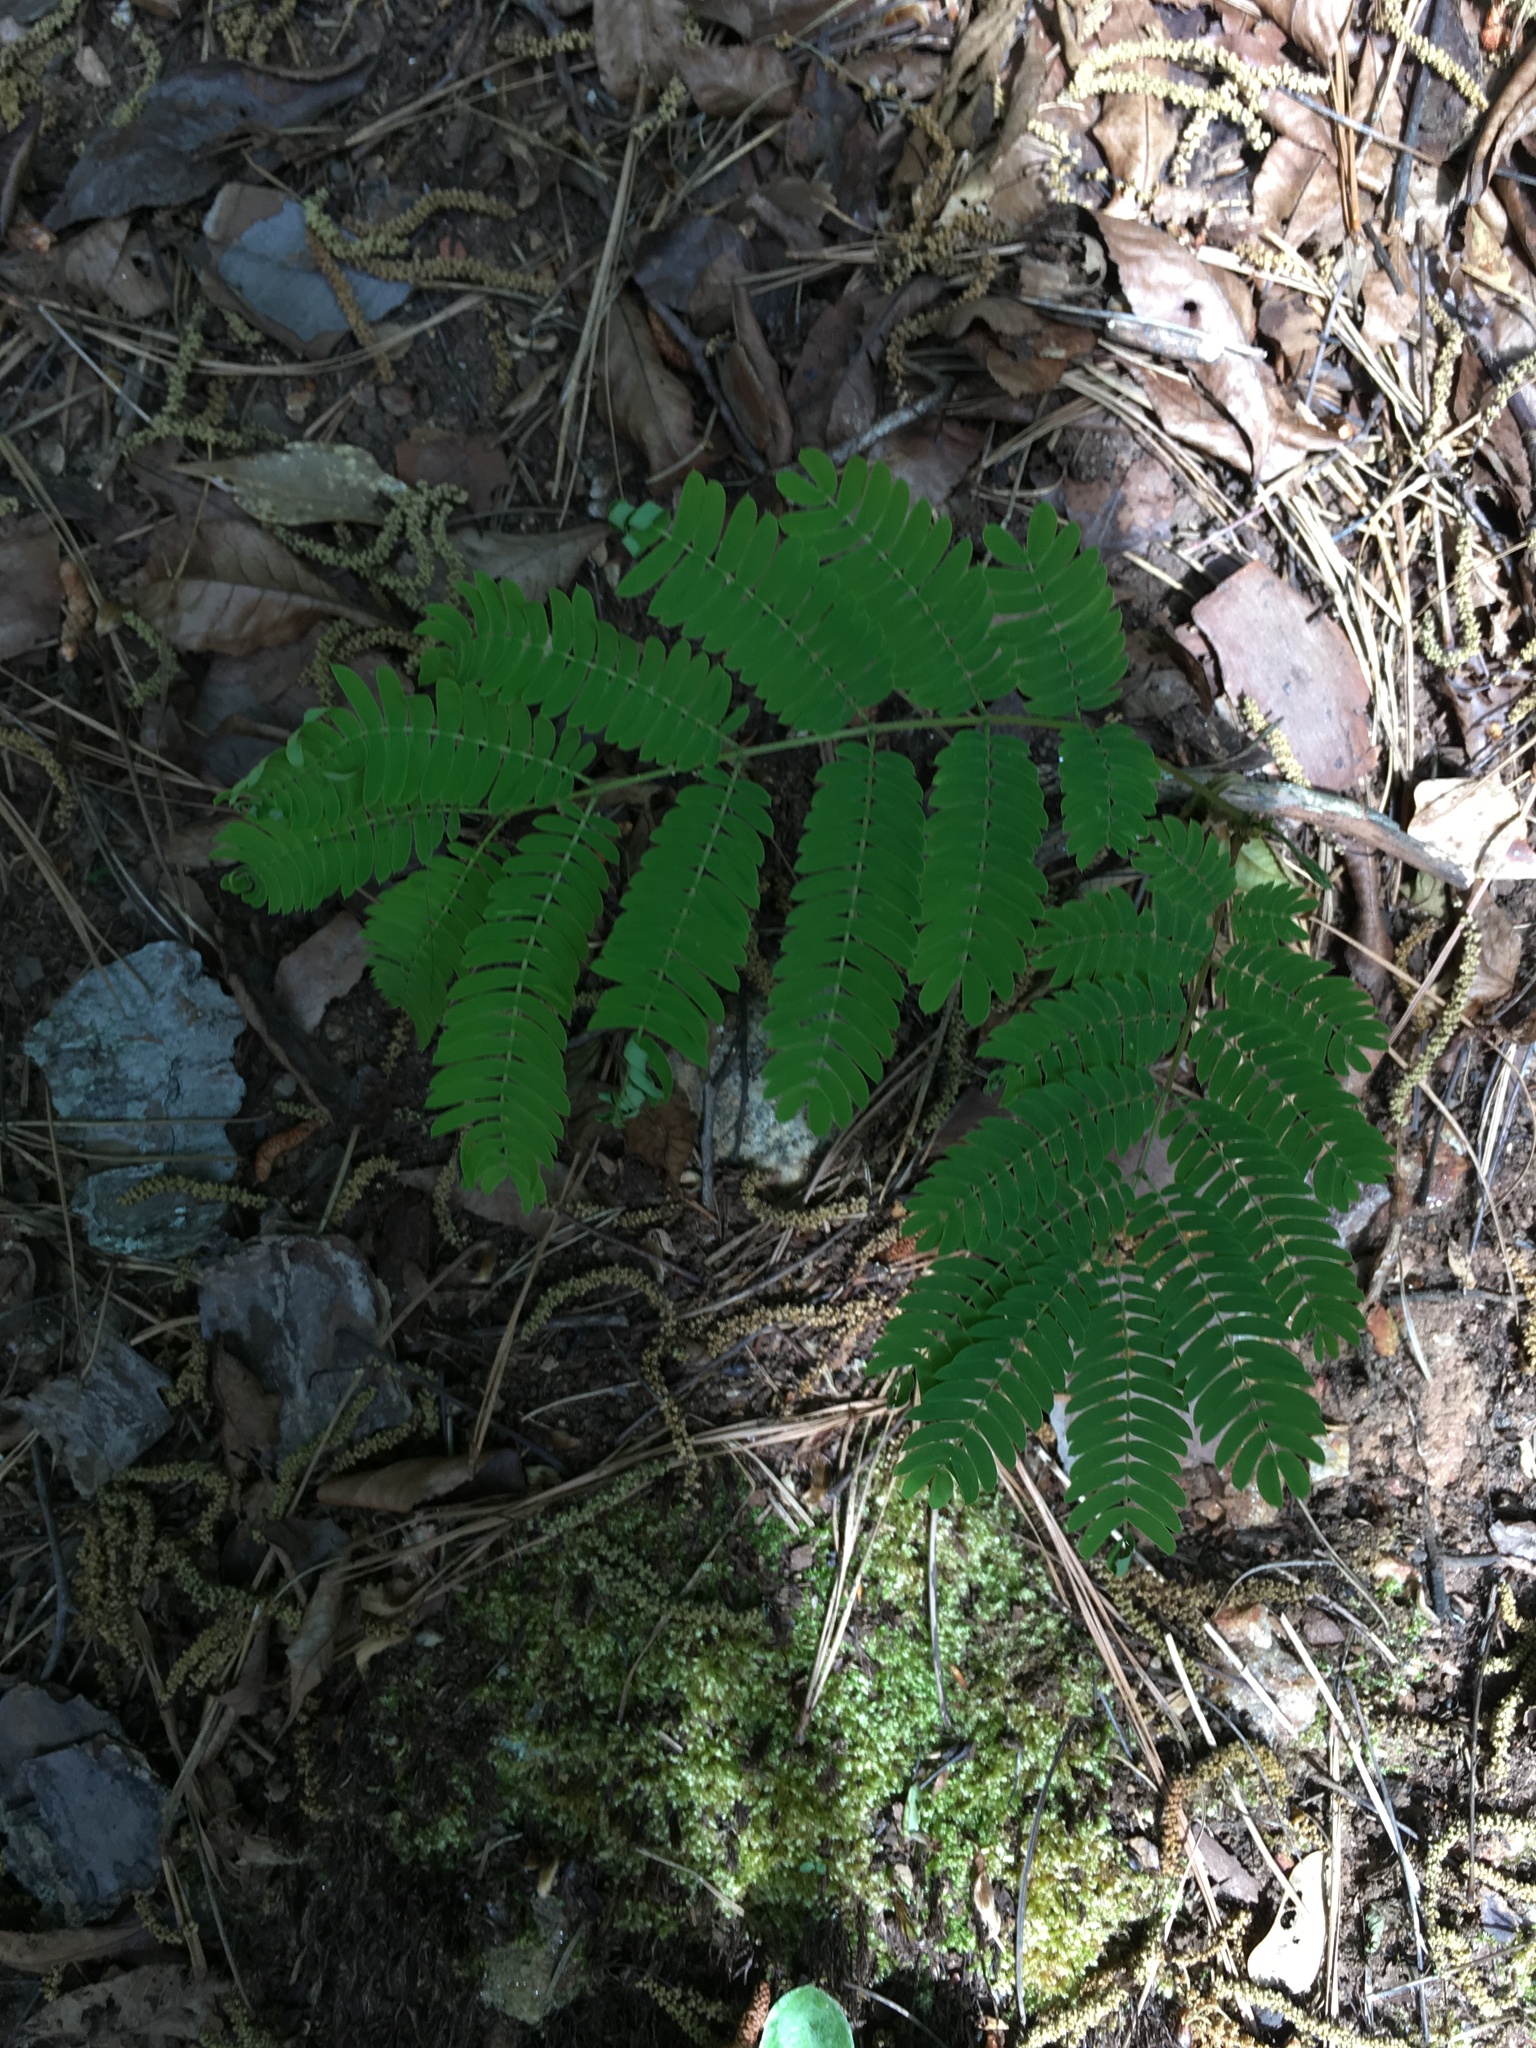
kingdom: Plantae
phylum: Tracheophyta
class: Magnoliopsida
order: Fabales
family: Fabaceae
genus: Albizia
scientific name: Albizia julibrissin
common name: Silktree
